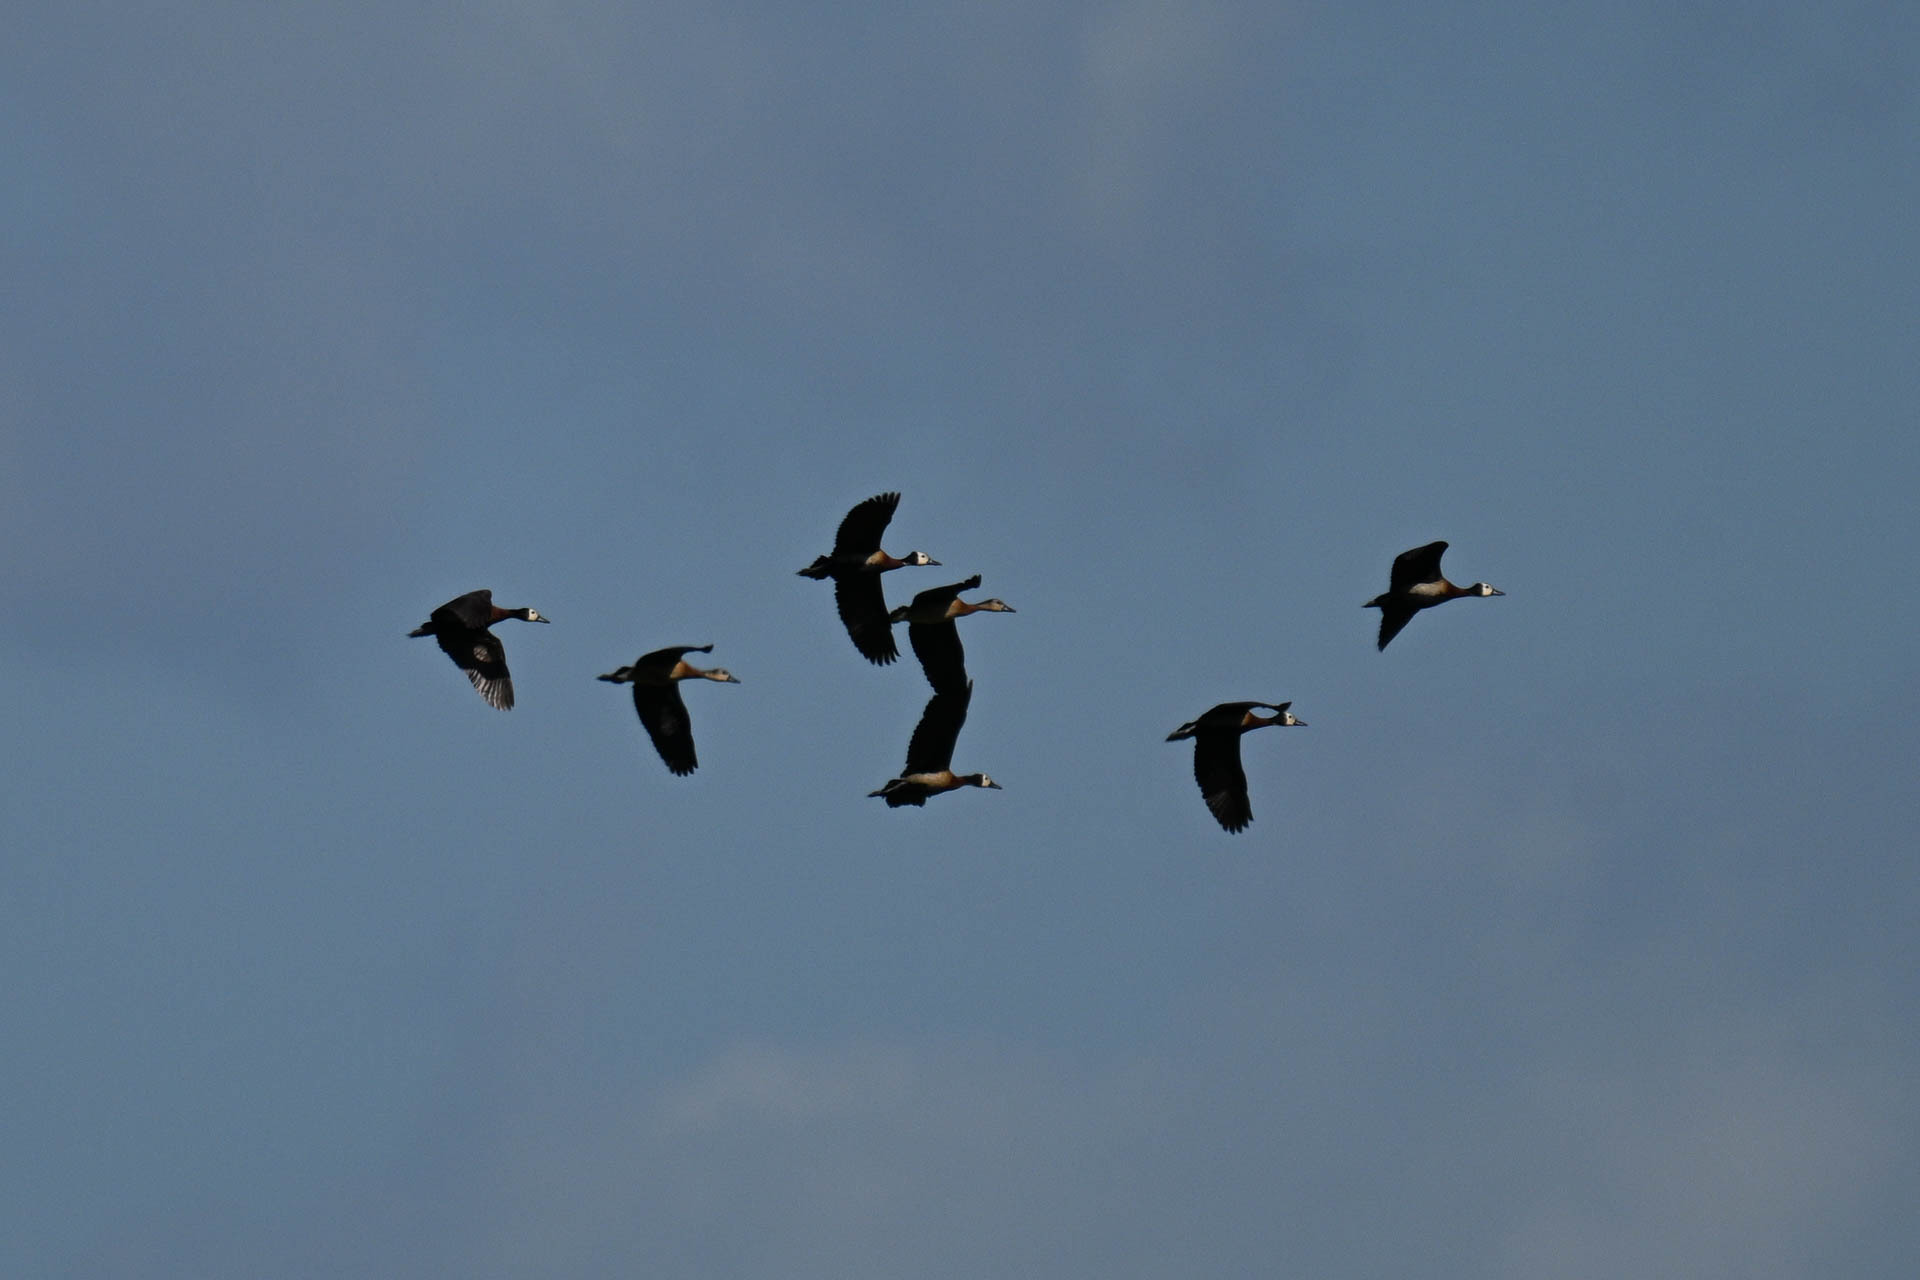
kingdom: Animalia
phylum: Chordata
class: Aves
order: Anseriformes
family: Anatidae
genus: Dendrocygna
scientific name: Dendrocygna viduata
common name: White-faced whistling duck
